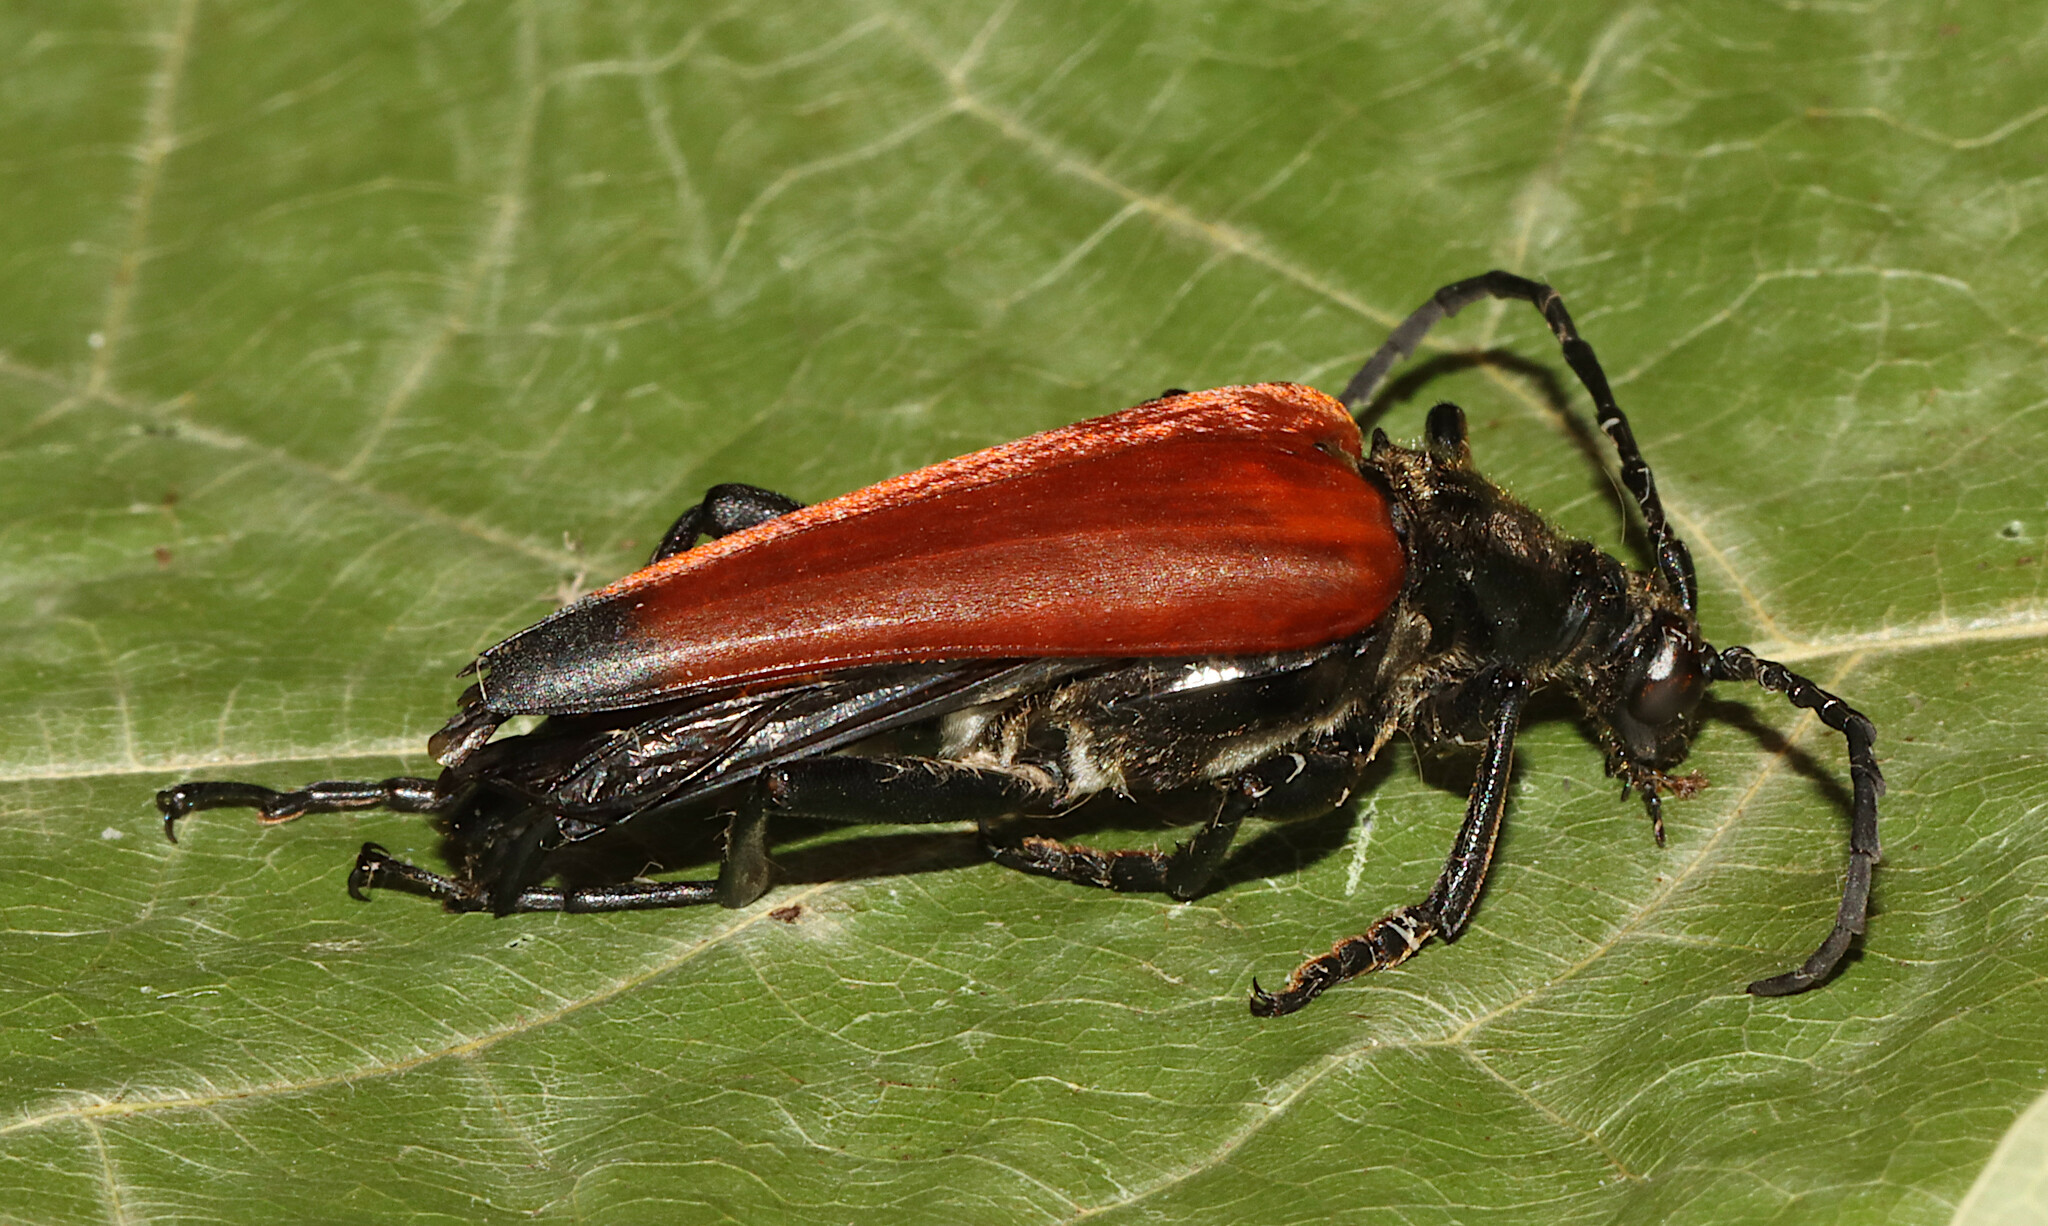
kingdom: Animalia
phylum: Arthropoda
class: Insecta
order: Coleoptera
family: Cerambycidae
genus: Stenelytrana
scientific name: Stenelytrana emarginata
